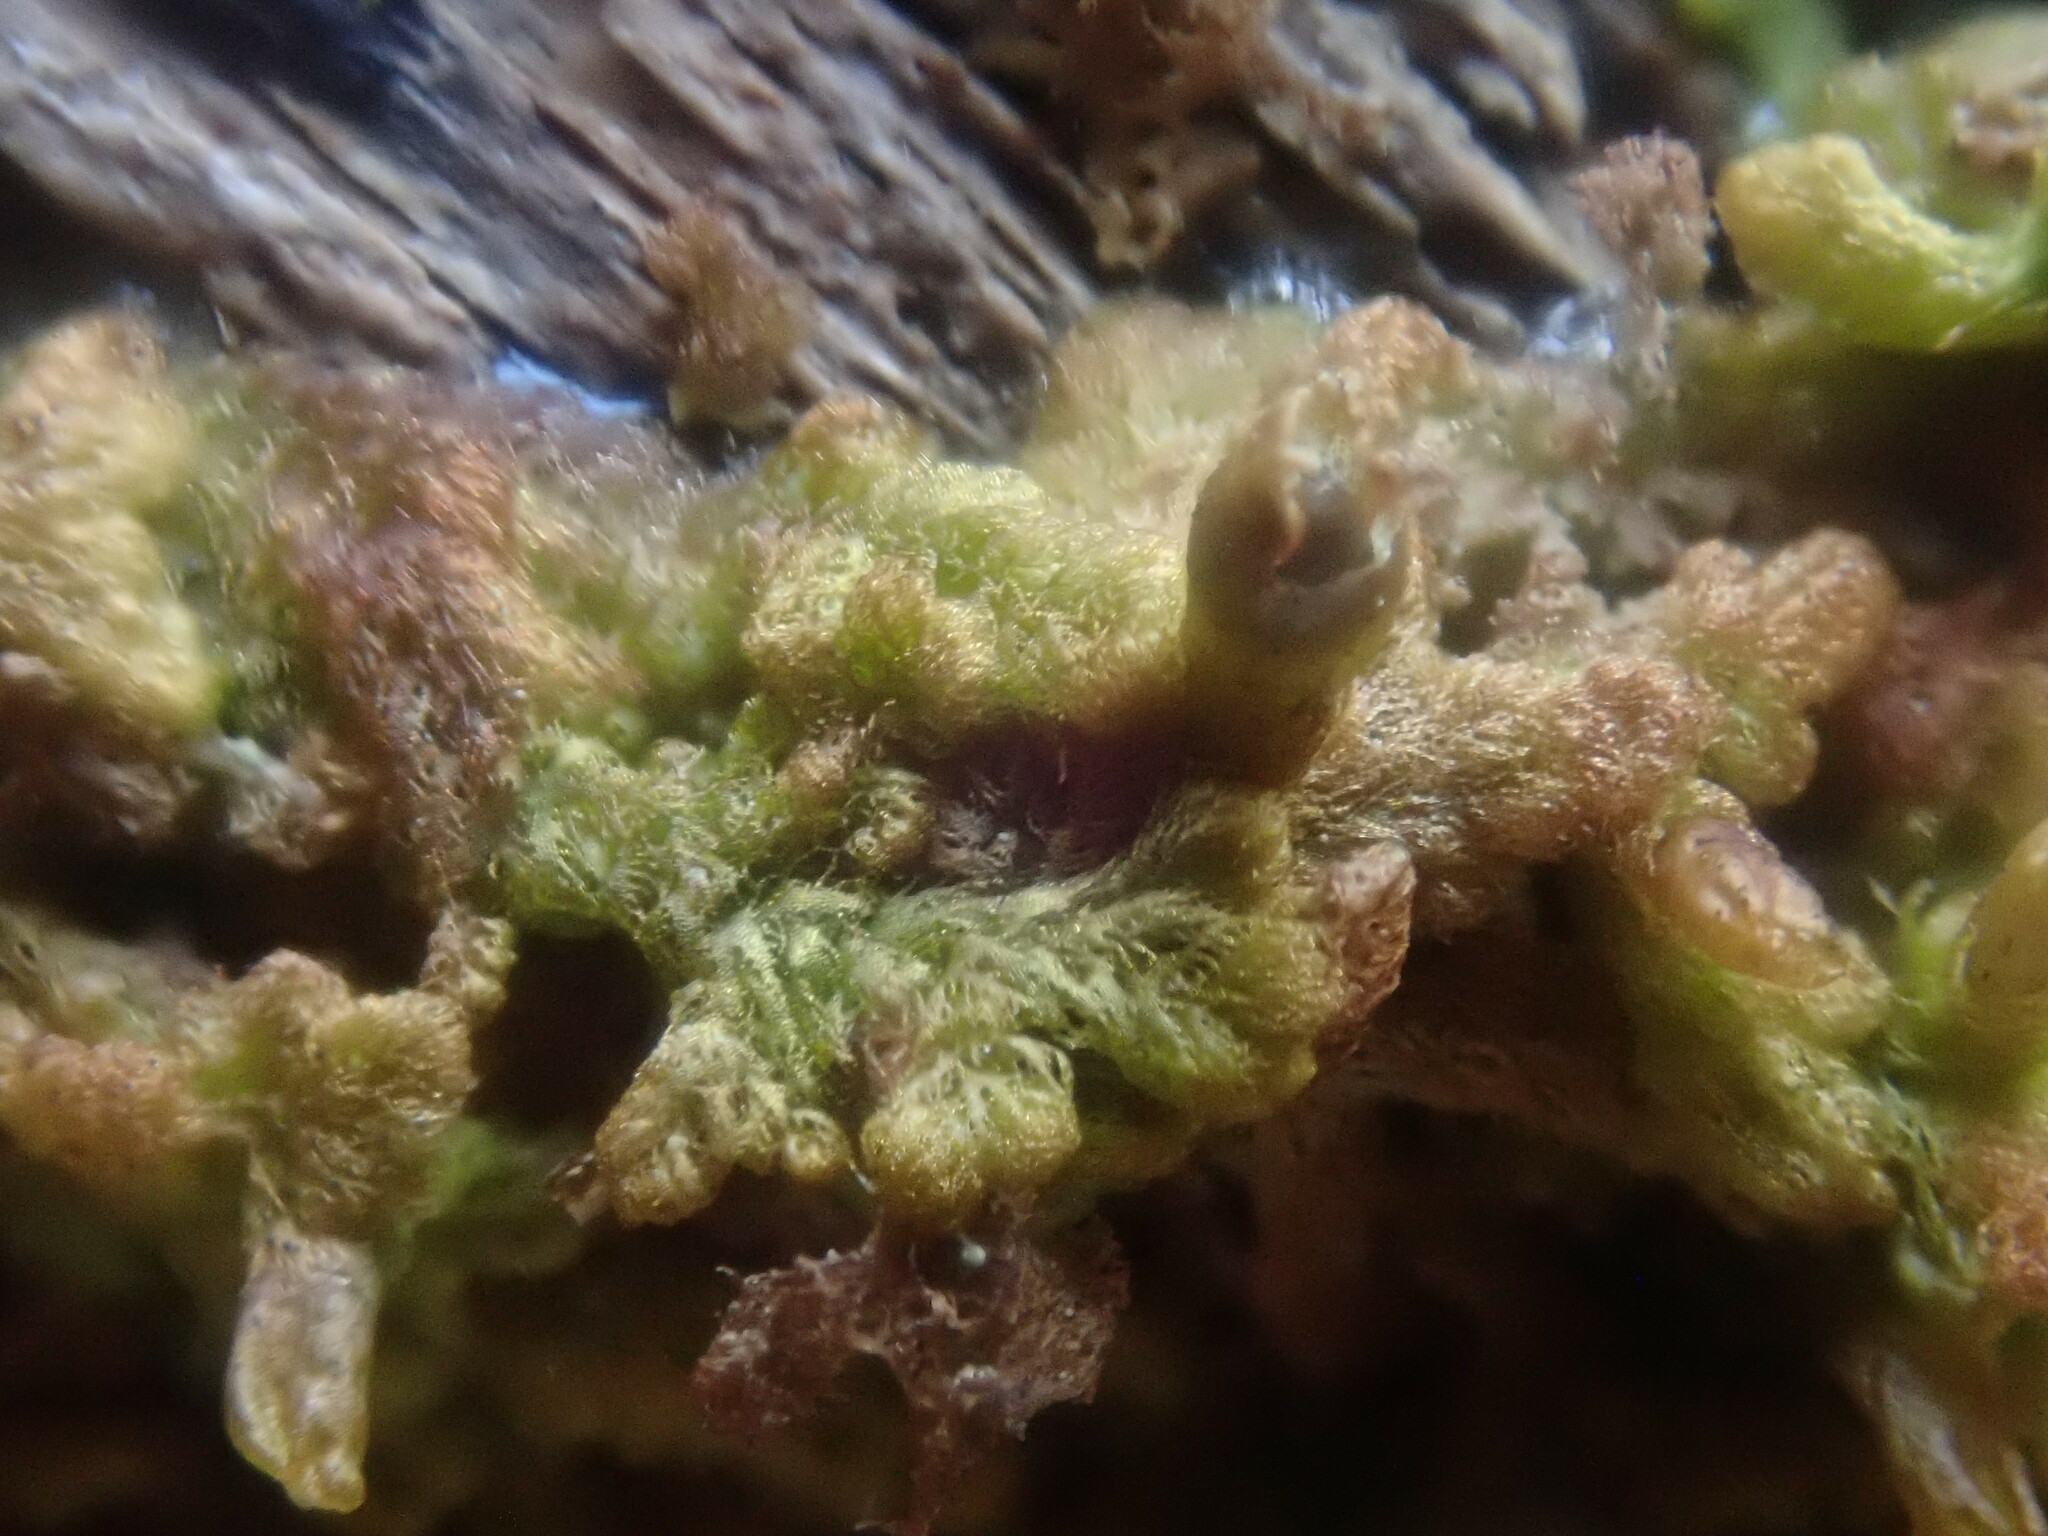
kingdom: Plantae
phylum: Marchantiophyta
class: Jungermanniopsida
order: Ptilidiales
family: Ptilidiaceae
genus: Ptilidium
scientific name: Ptilidium pulcherrimum
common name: Tree fringewort
